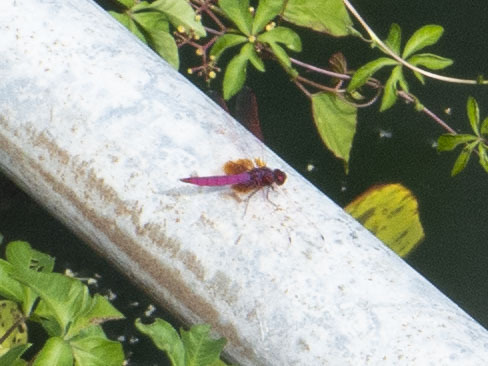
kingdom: Animalia
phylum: Arthropoda
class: Insecta
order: Odonata
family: Libellulidae
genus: Trithemis
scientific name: Trithemis aurora
